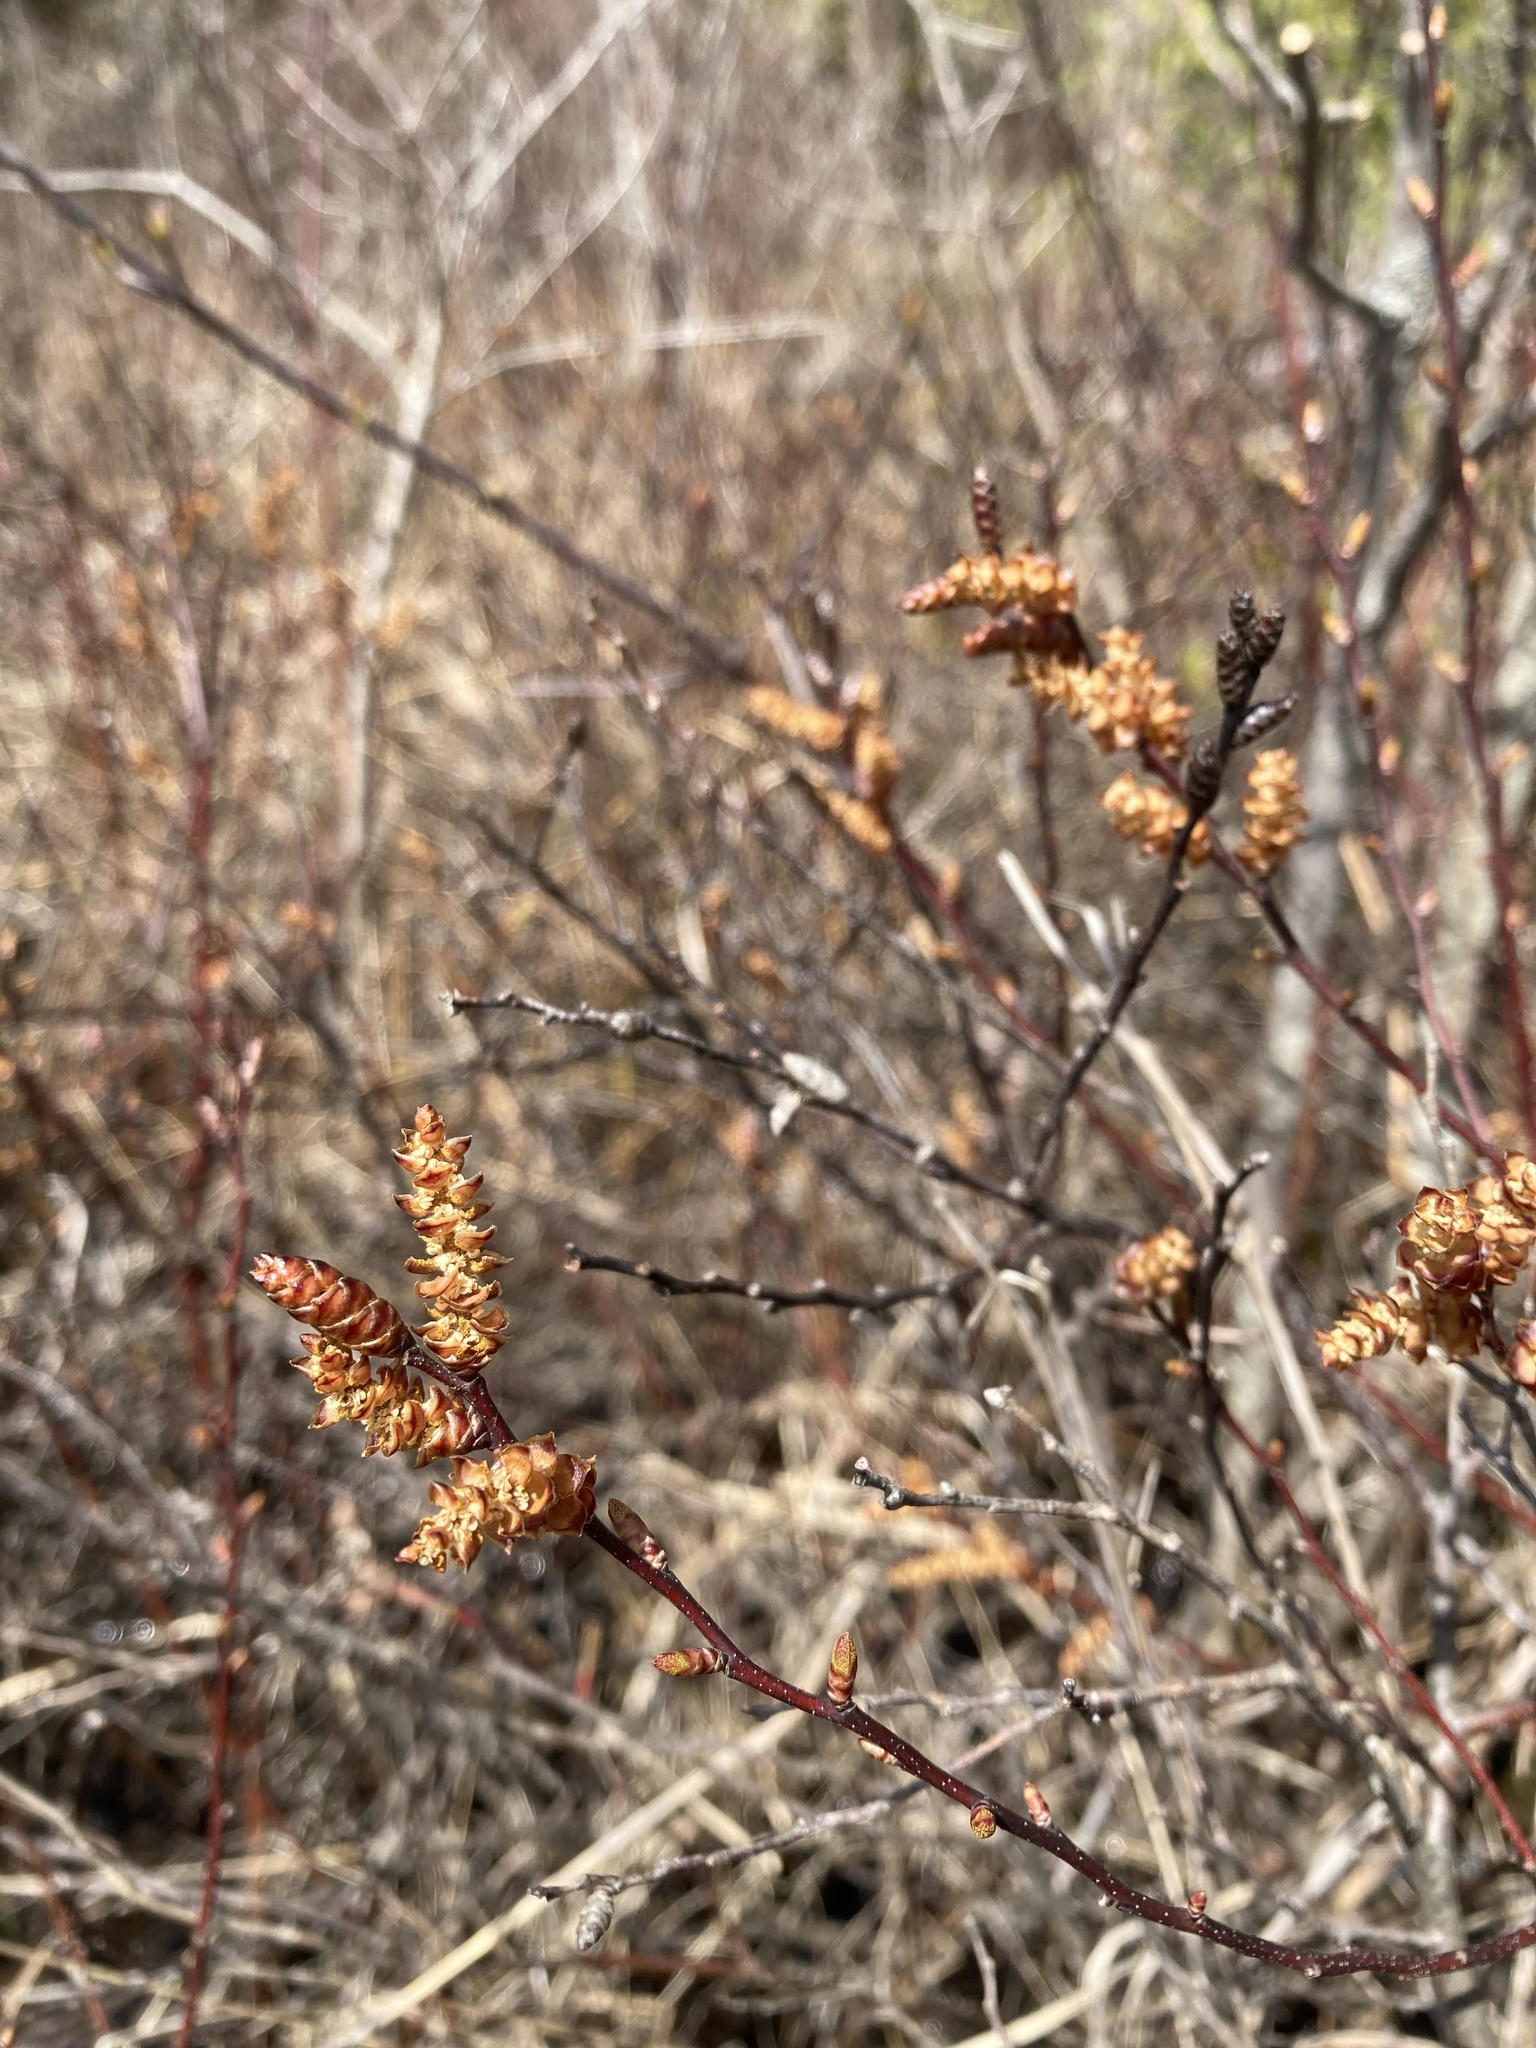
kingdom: Plantae
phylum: Tracheophyta
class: Magnoliopsida
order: Fagales
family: Myricaceae
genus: Myrica
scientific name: Myrica gale
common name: Sweet gale
